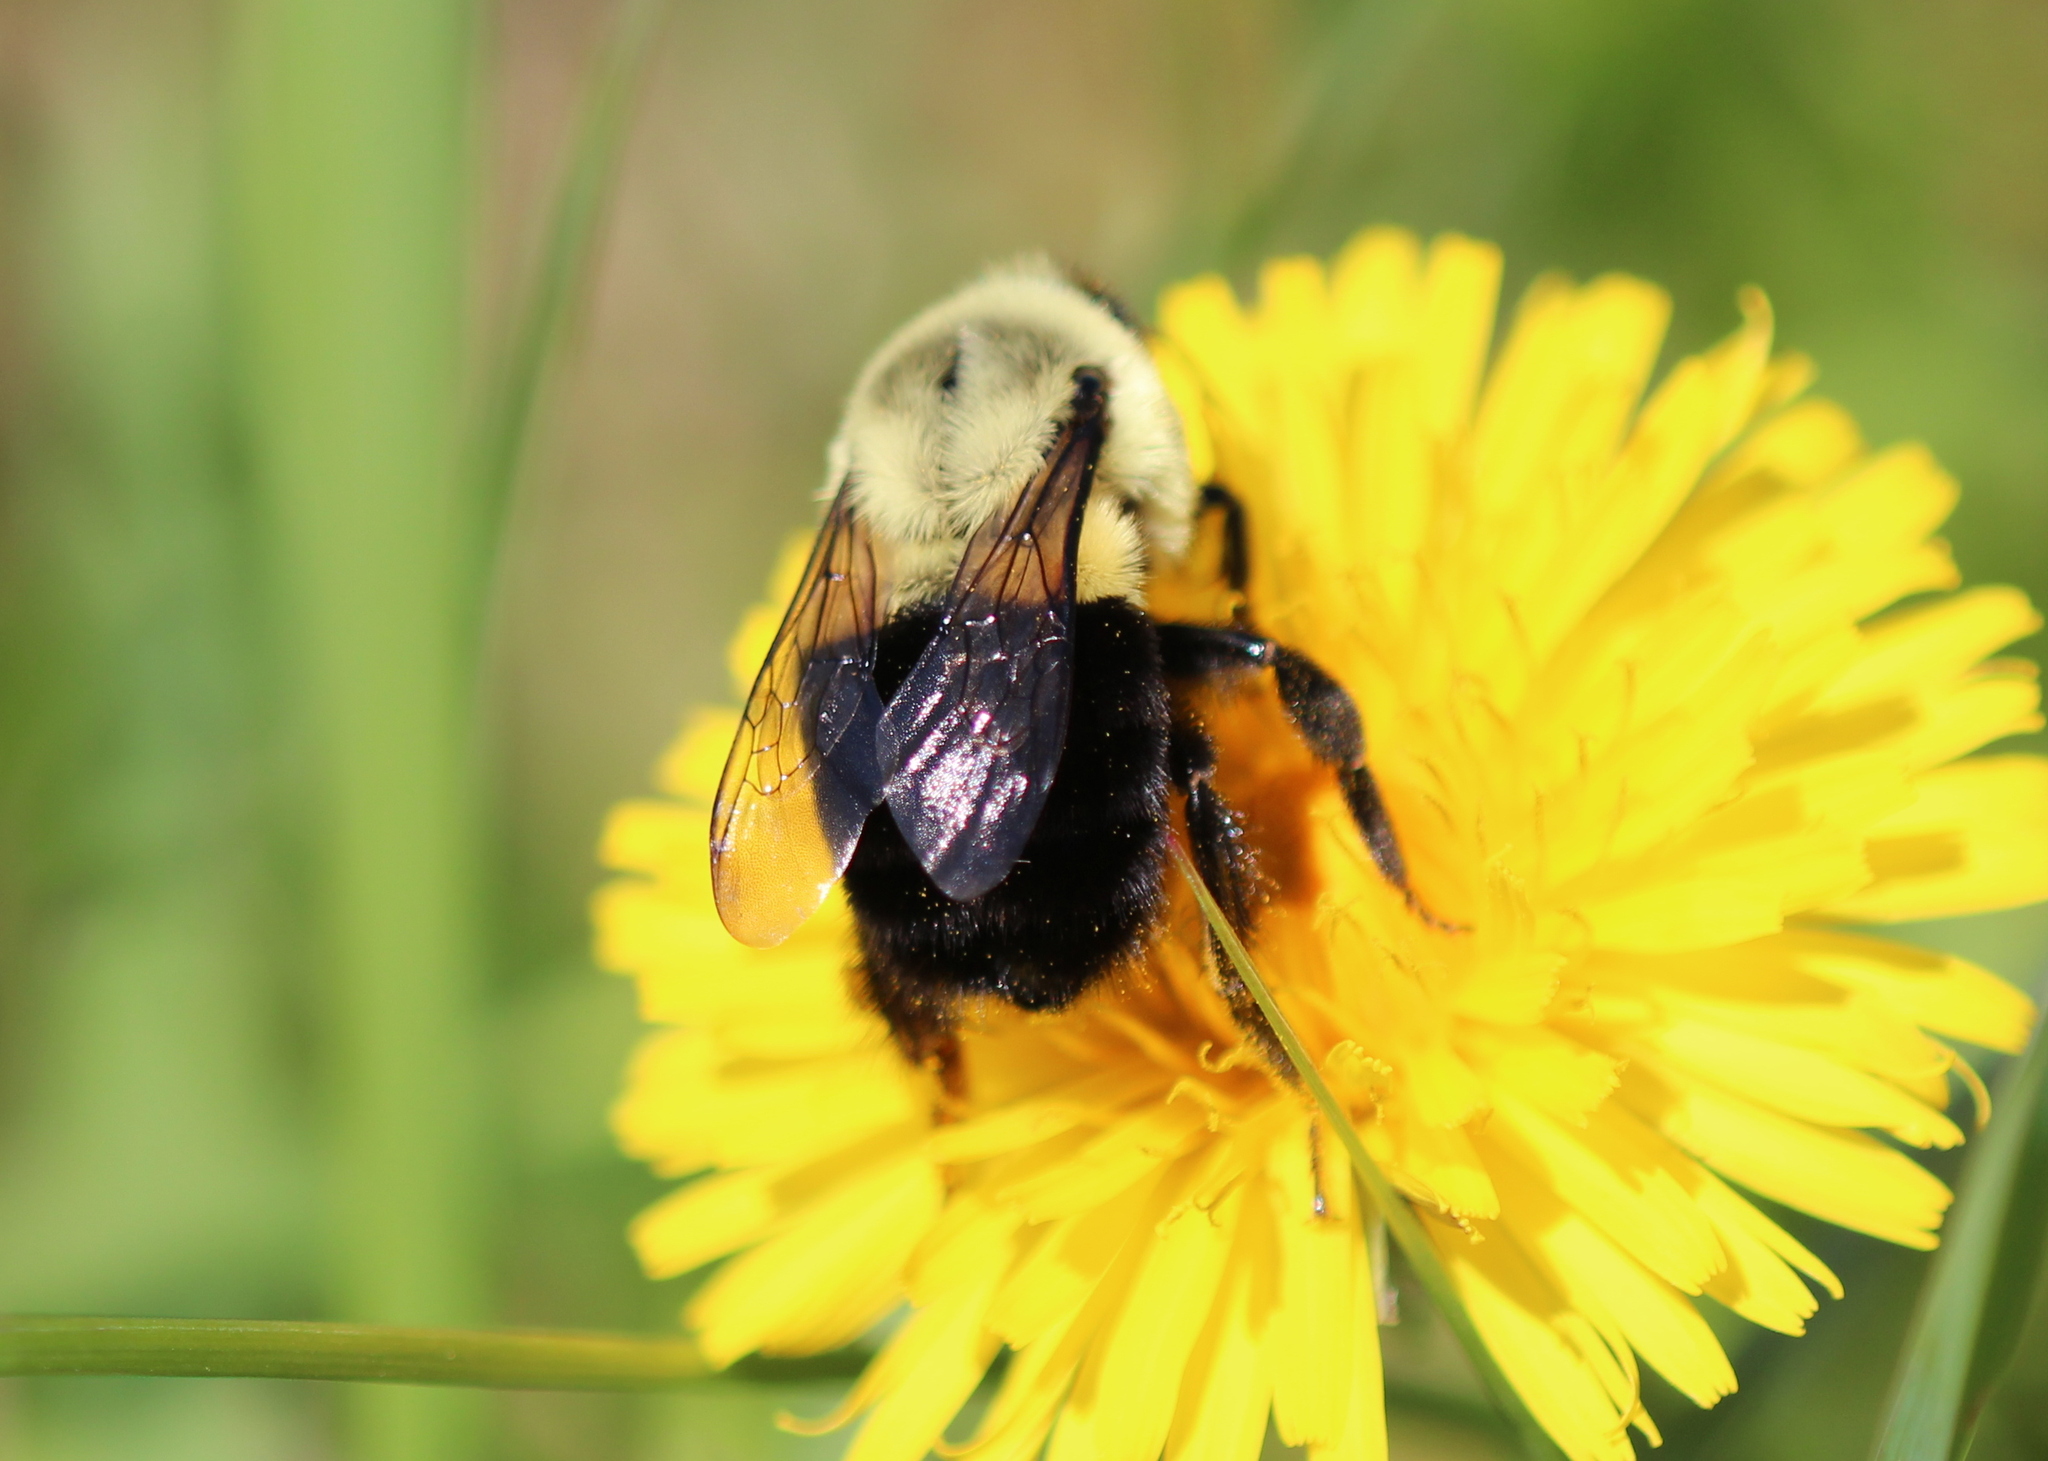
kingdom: Animalia
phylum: Arthropoda
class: Insecta
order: Hymenoptera
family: Apidae
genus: Bombus
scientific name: Bombus impatiens
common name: Common eastern bumble bee
